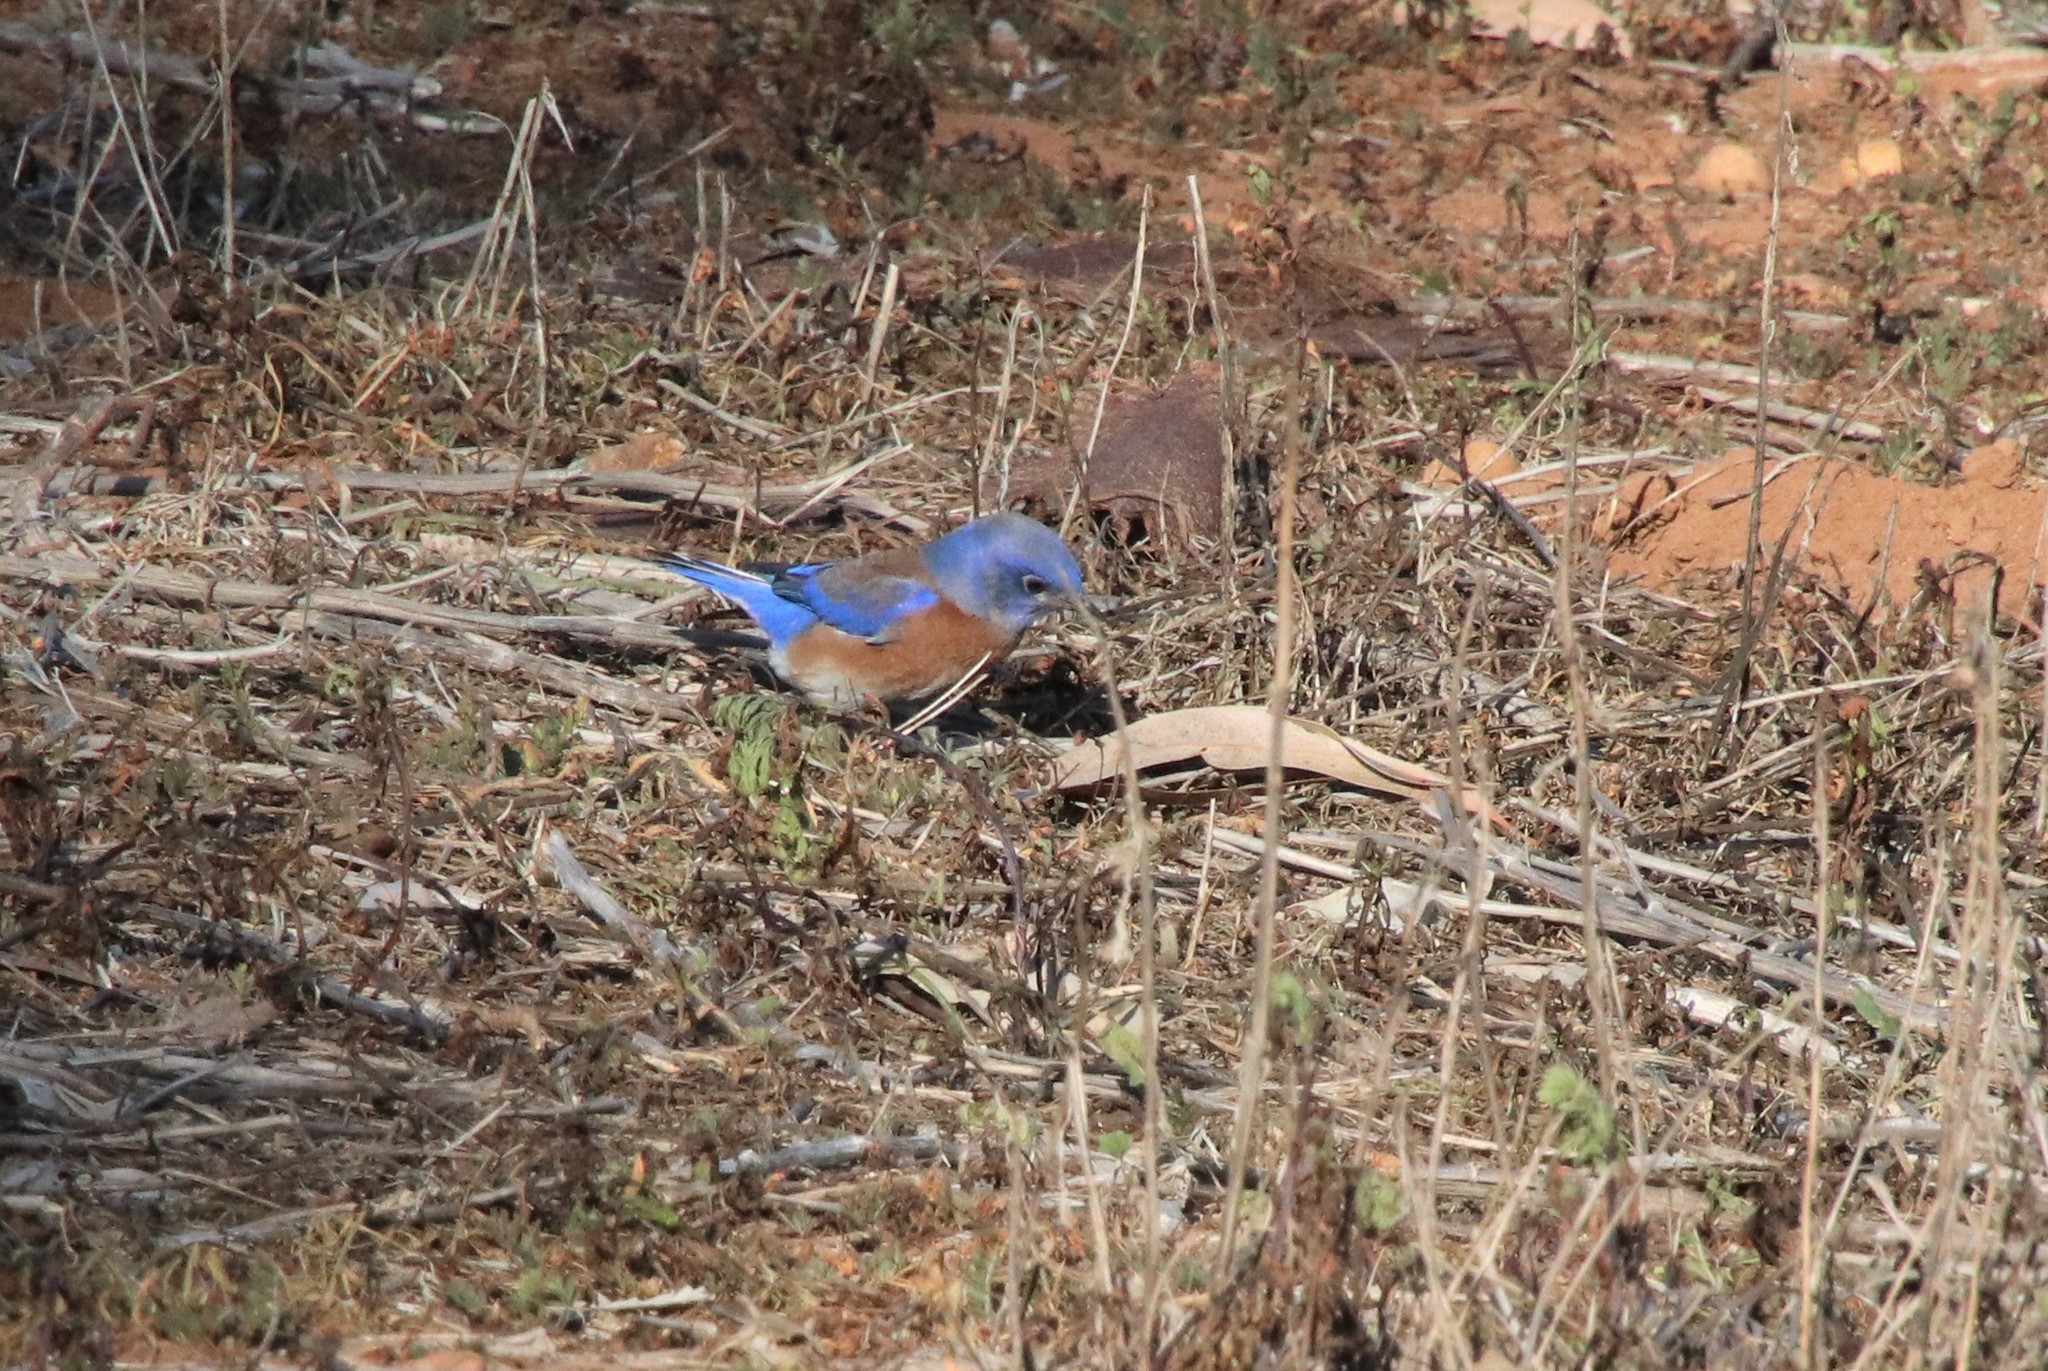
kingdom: Animalia
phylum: Chordata
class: Aves
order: Passeriformes
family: Turdidae
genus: Sialia
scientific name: Sialia mexicana
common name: Western bluebird
